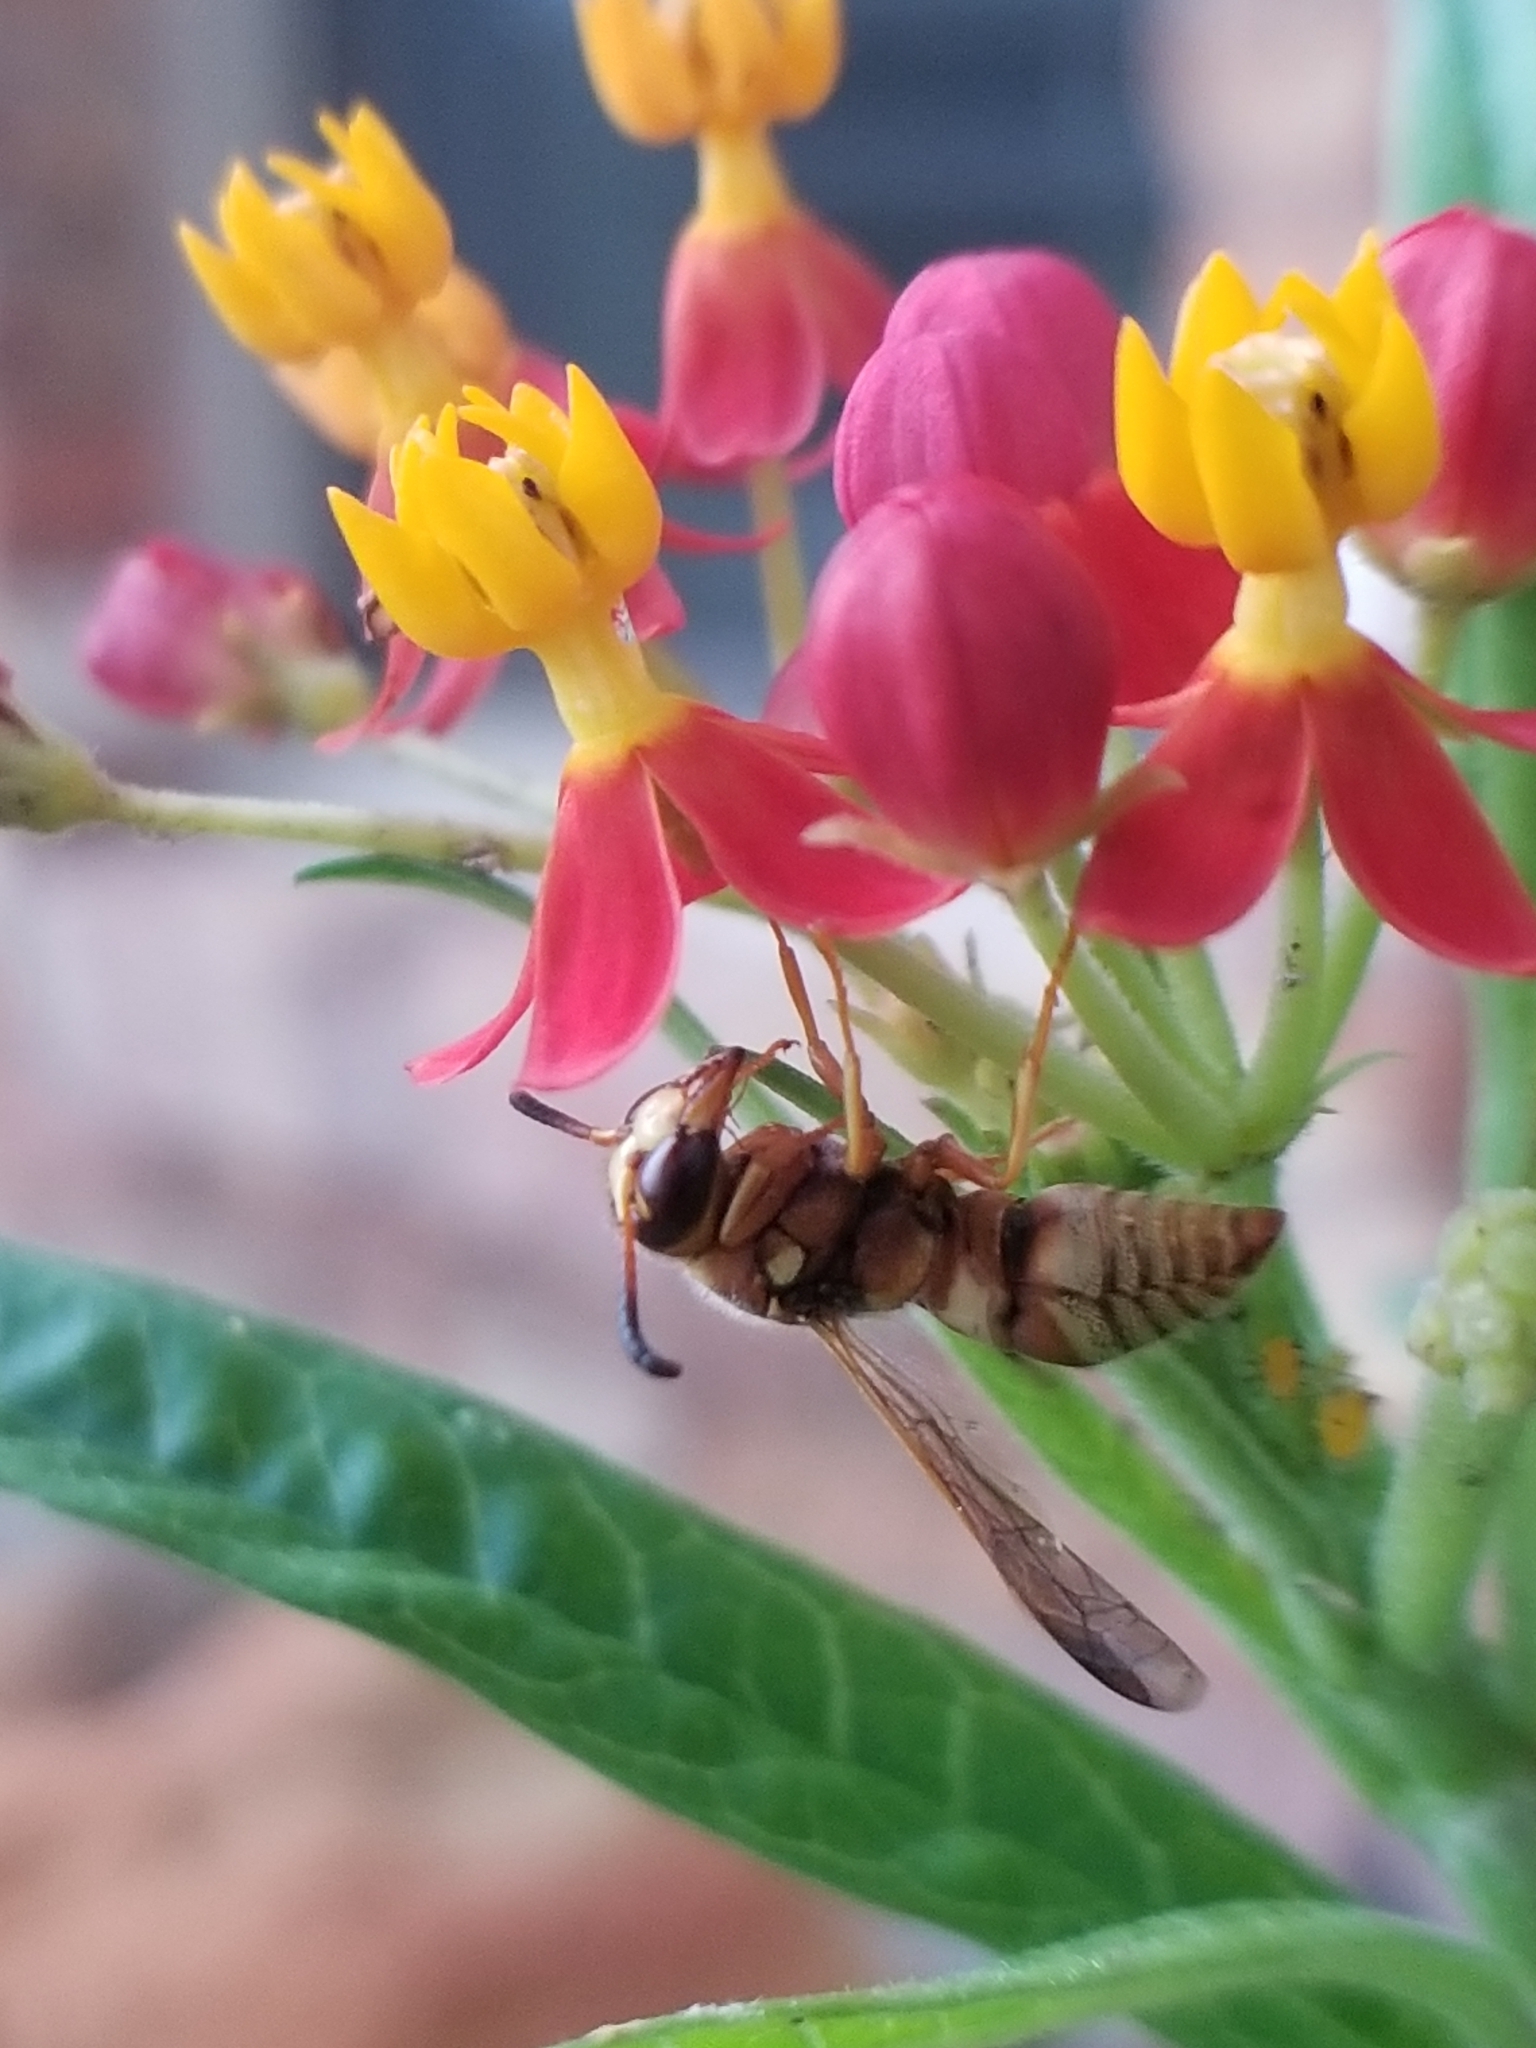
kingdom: Animalia
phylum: Arthropoda
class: Insecta
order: Hymenoptera
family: Eumenidae
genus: Euodynerus
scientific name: Euodynerus pratensis
